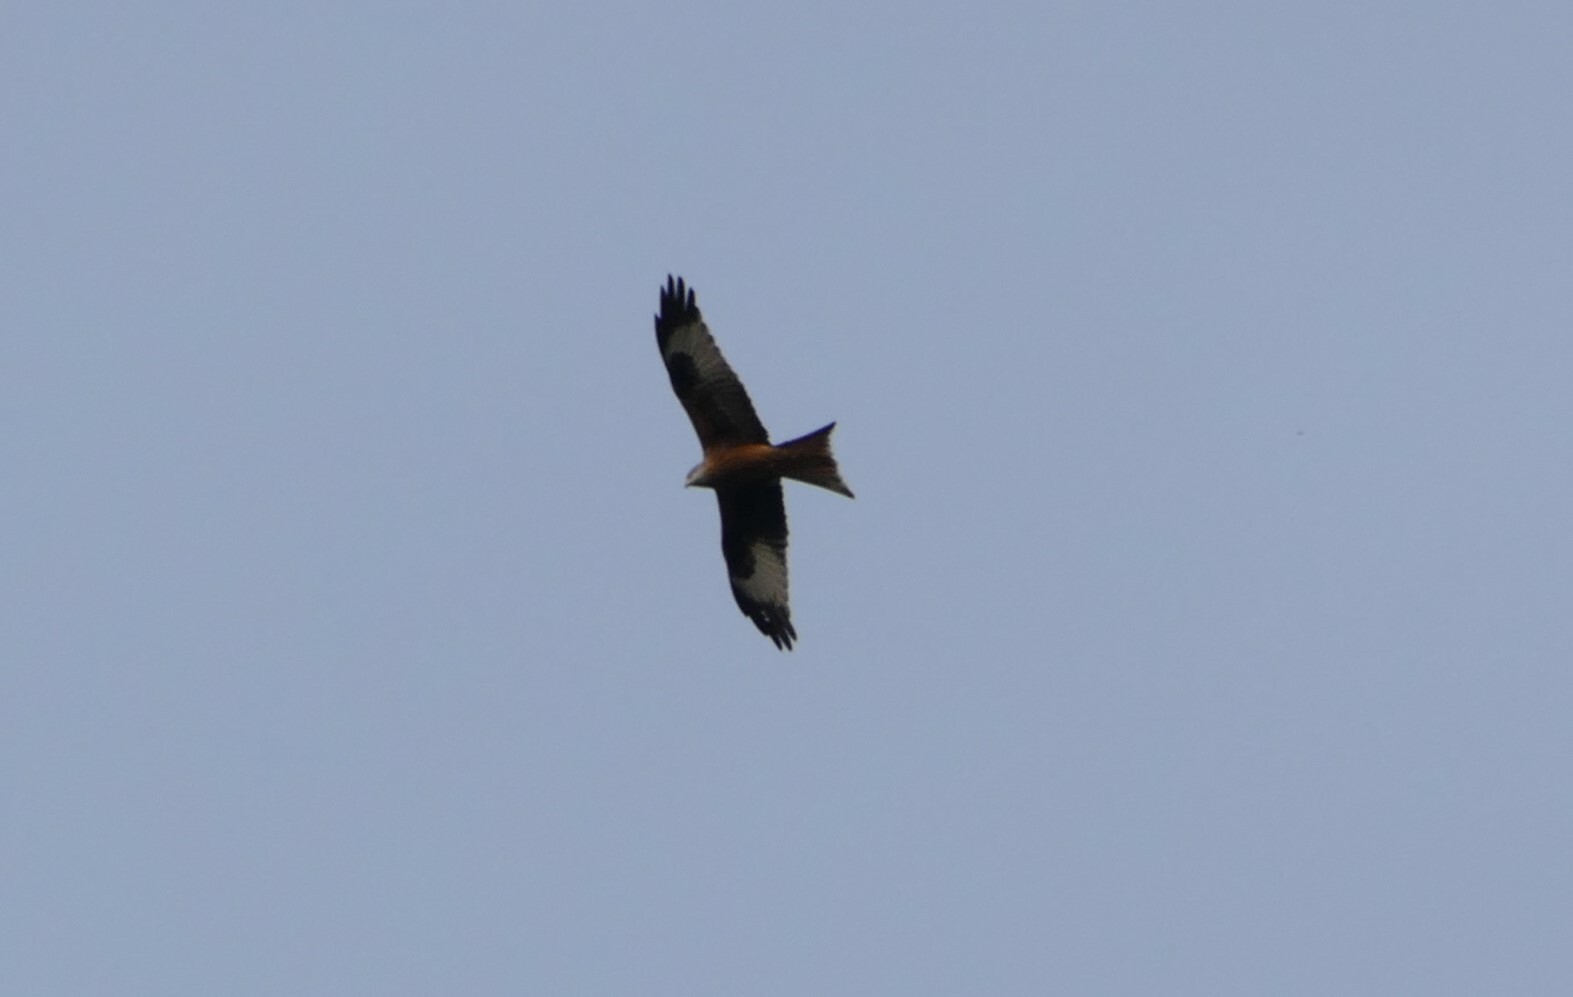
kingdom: Animalia
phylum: Chordata
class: Aves
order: Accipitriformes
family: Accipitridae
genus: Milvus
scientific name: Milvus milvus
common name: Red kite
